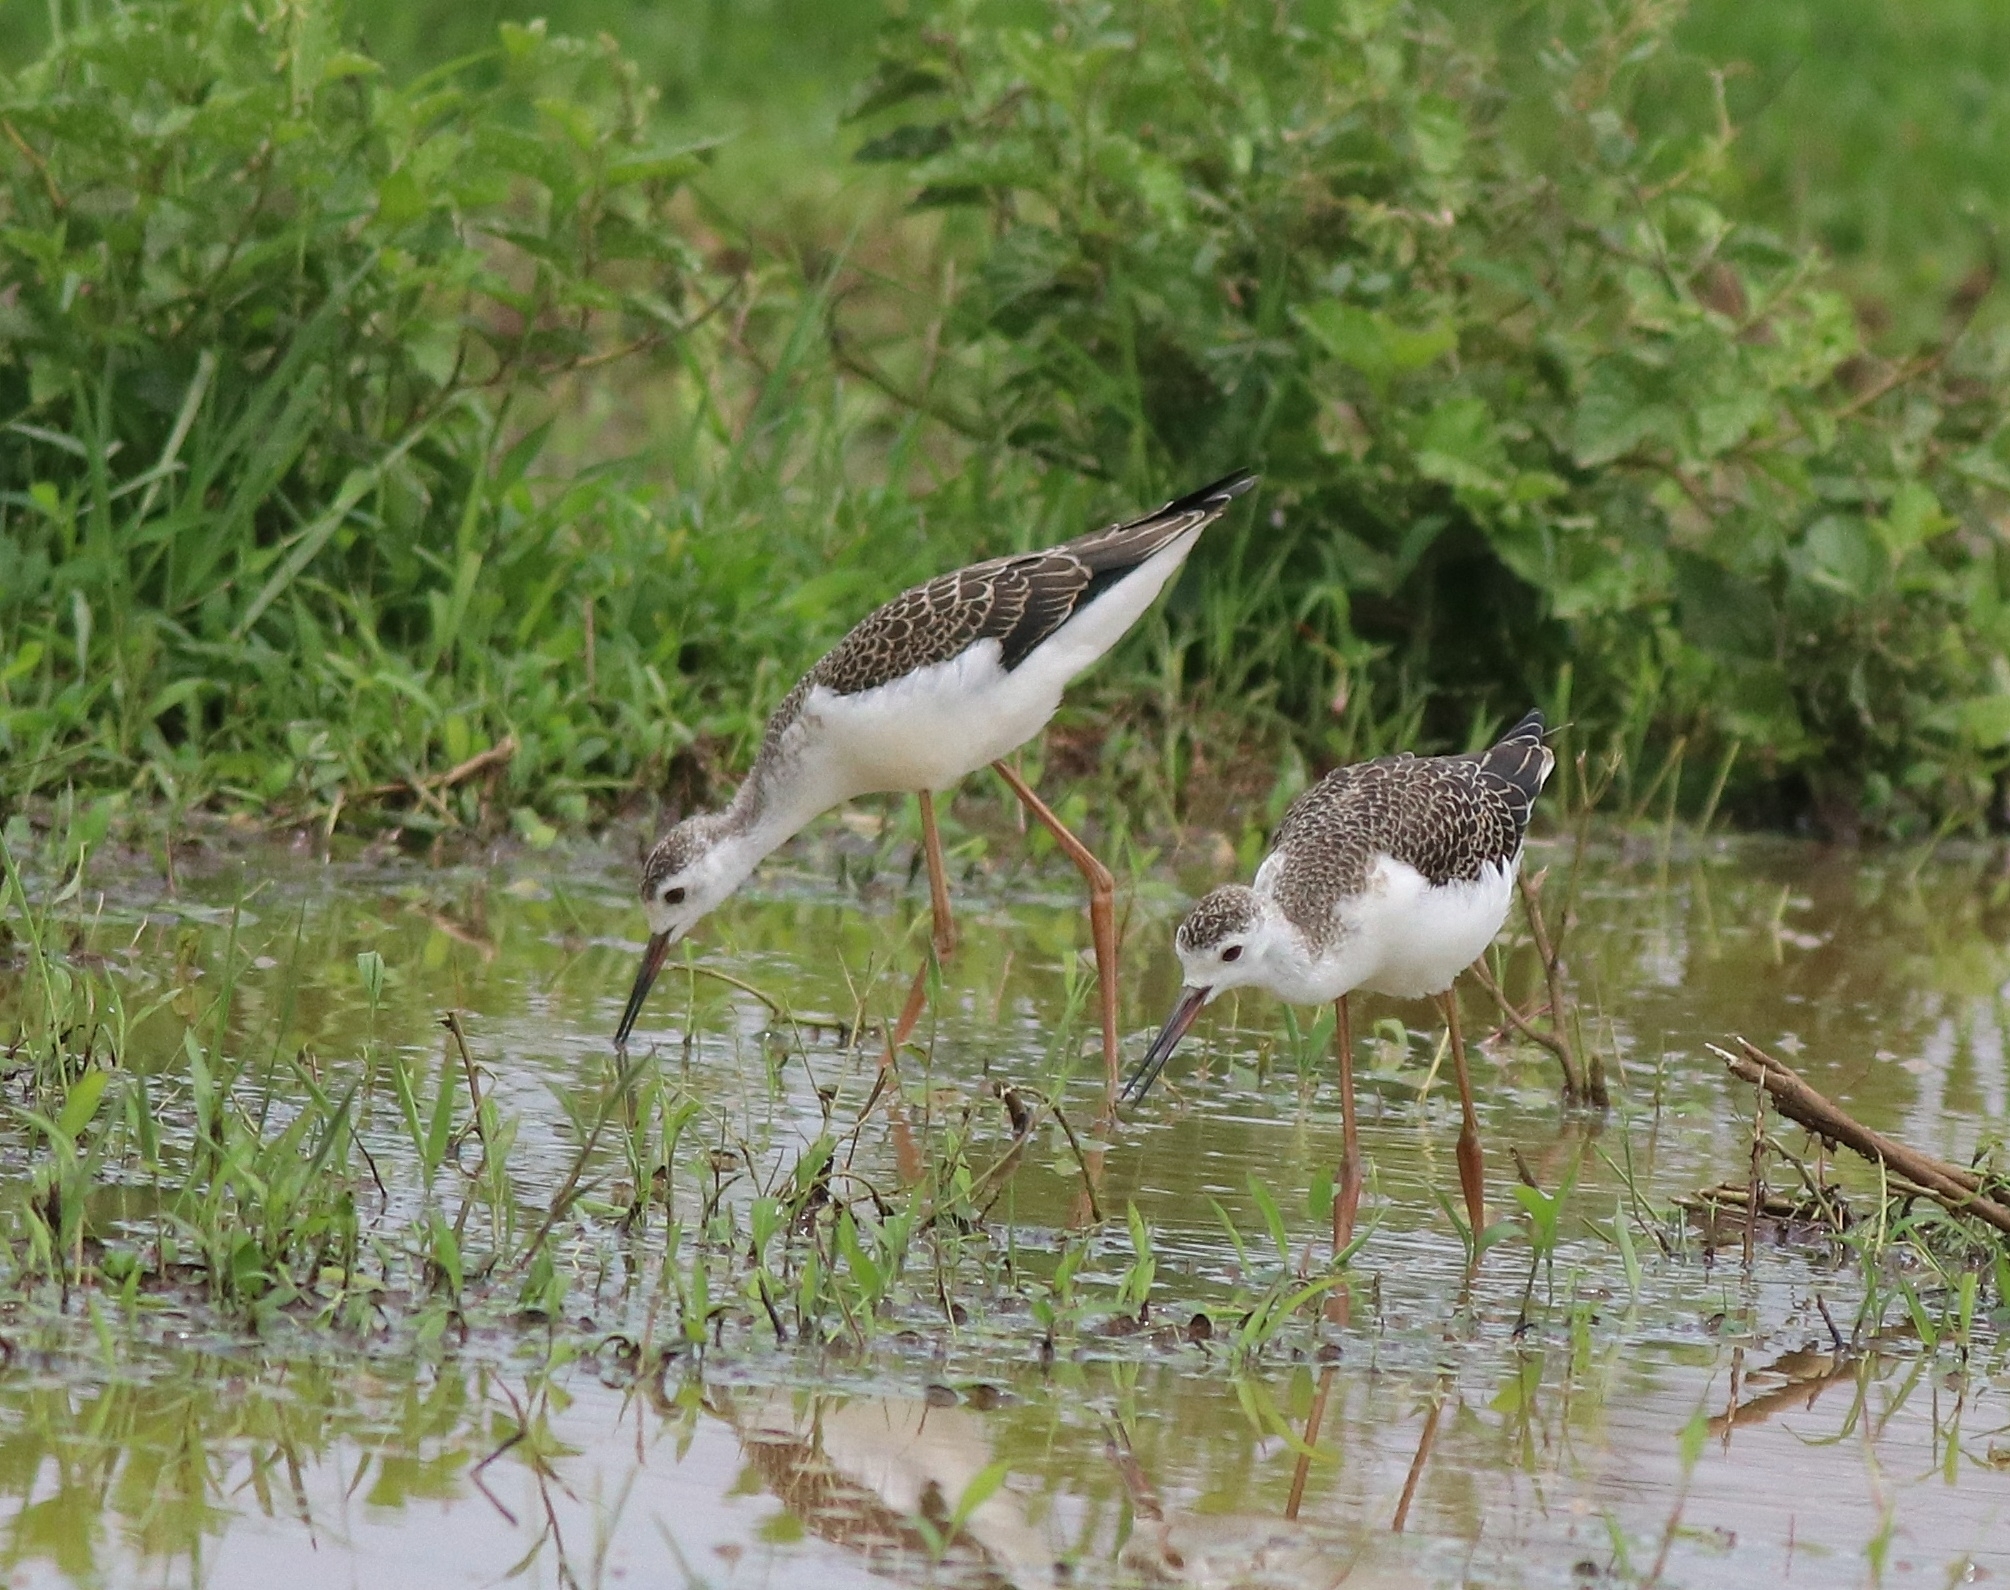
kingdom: Animalia
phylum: Chordata
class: Aves
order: Charadriiformes
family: Recurvirostridae
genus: Himantopus
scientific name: Himantopus himantopus
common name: Black-winged stilt
